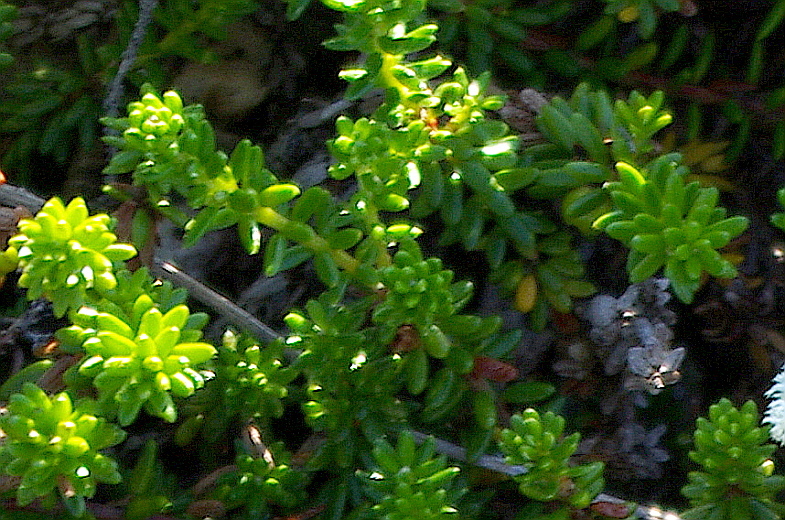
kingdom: Plantae
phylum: Tracheophyta
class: Magnoliopsida
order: Ericales
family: Ericaceae
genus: Empetrum
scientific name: Empetrum nigrum
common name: Black crowberry
